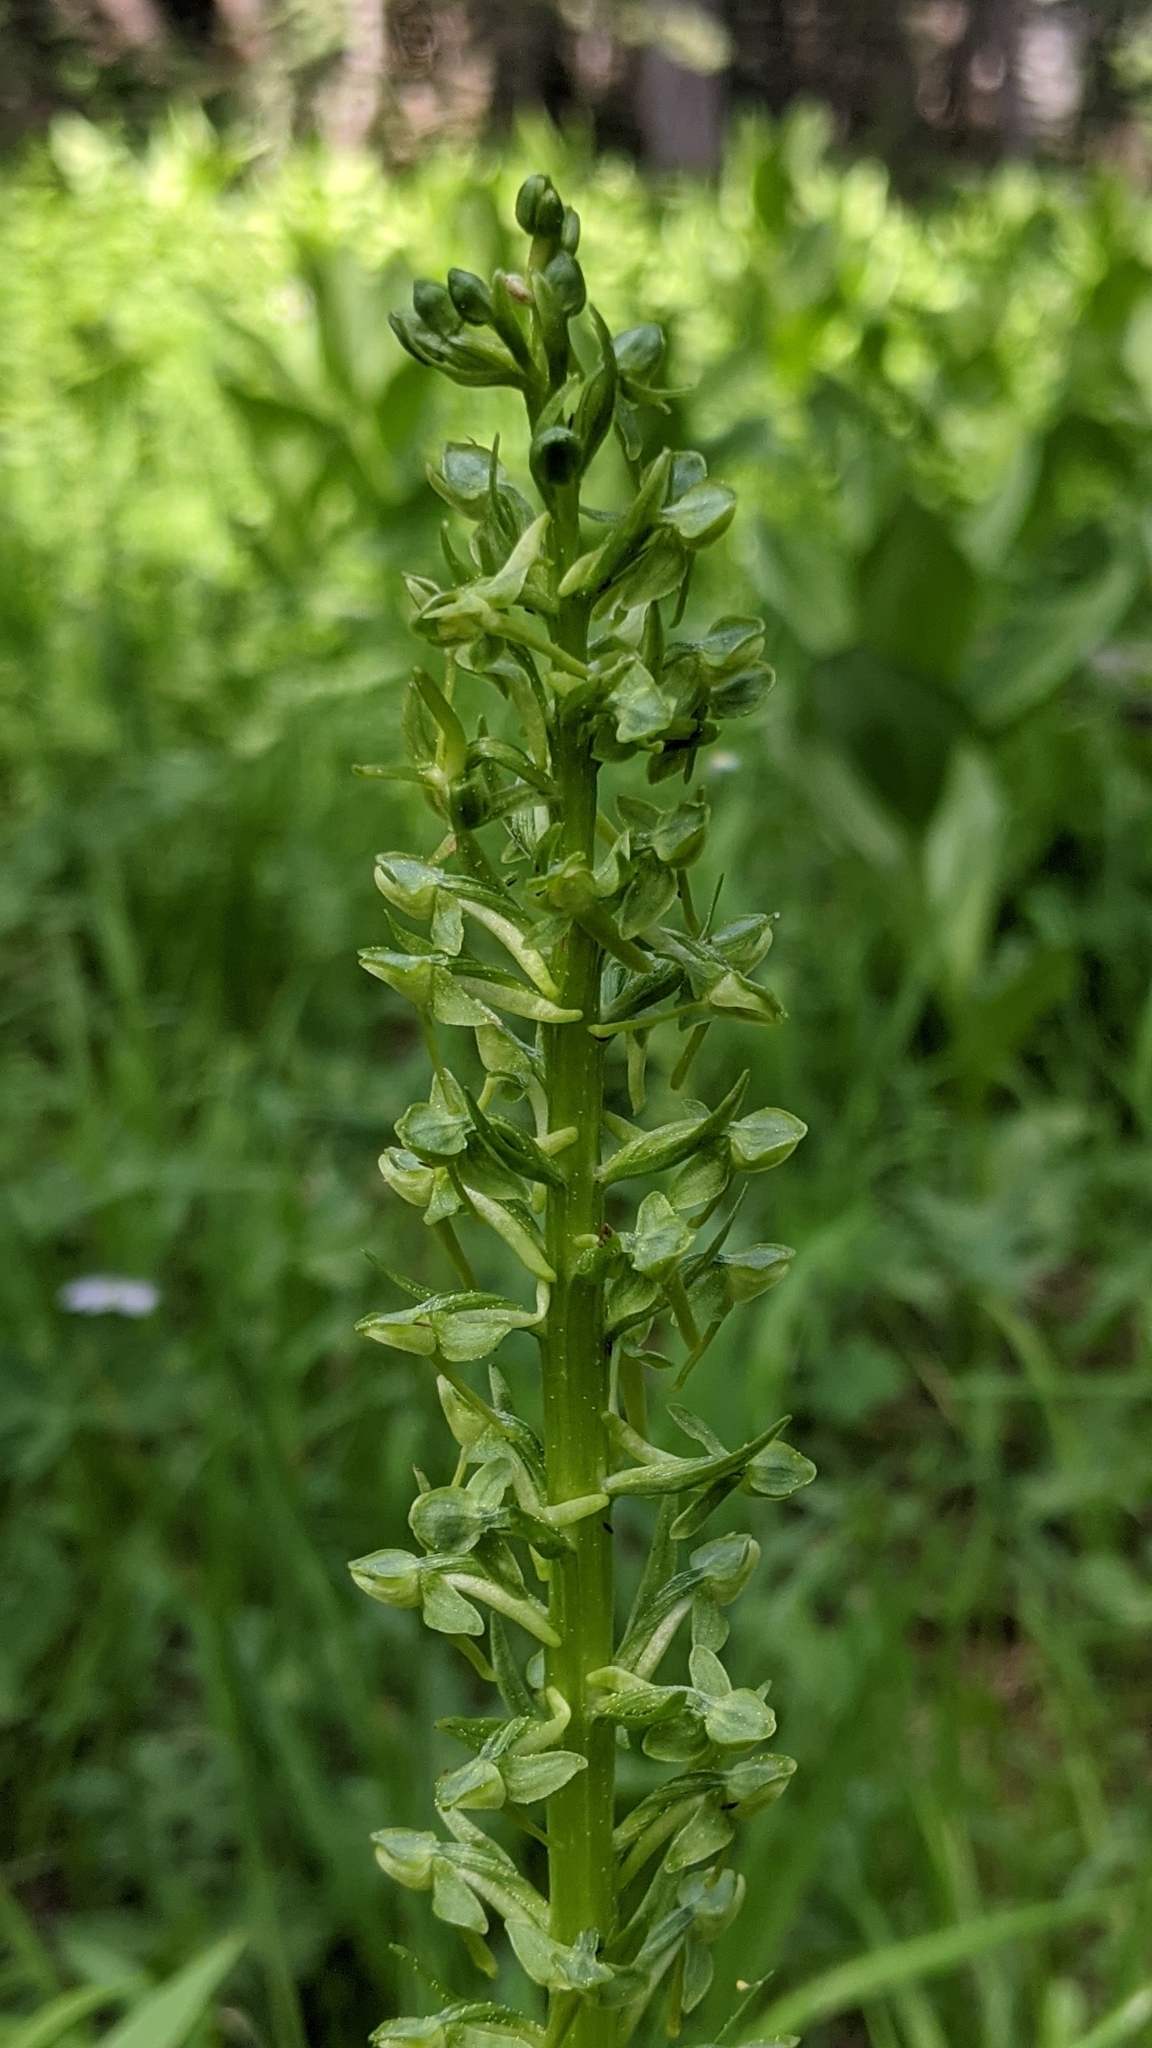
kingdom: Plantae
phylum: Tracheophyta
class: Liliopsida
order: Asparagales
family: Orchidaceae
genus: Platanthera
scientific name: Platanthera sparsiflora
